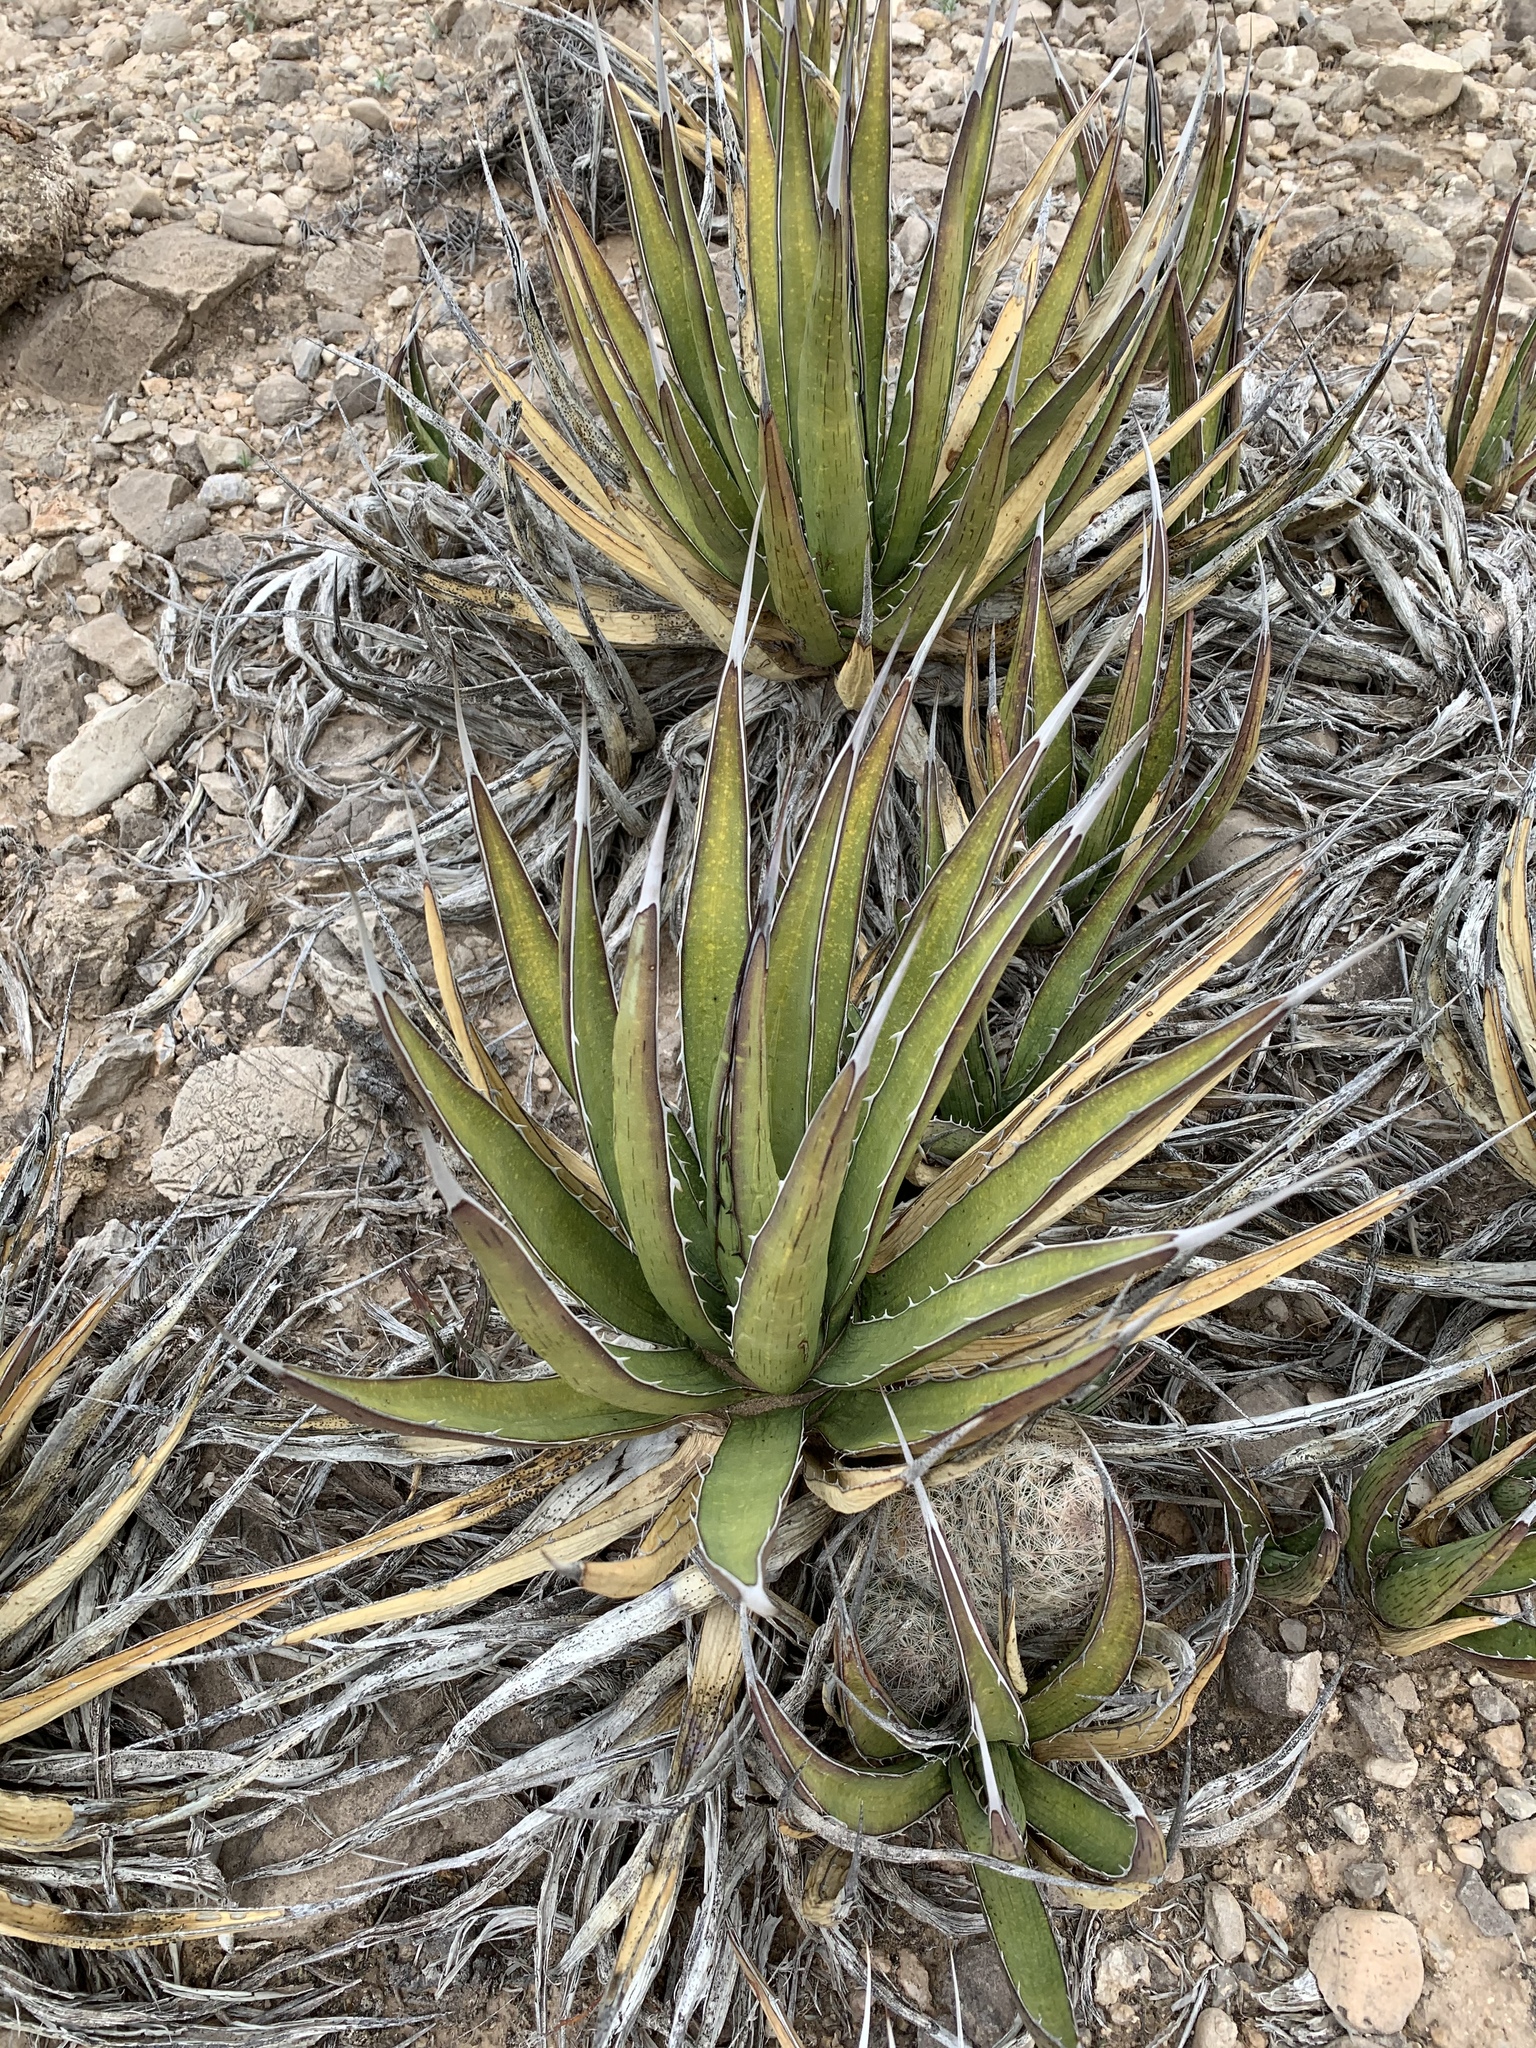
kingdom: Plantae
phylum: Tracheophyta
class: Liliopsida
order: Asparagales
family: Asparagaceae
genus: Agave
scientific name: Agave lechuguilla
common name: Lecheguilla agave
